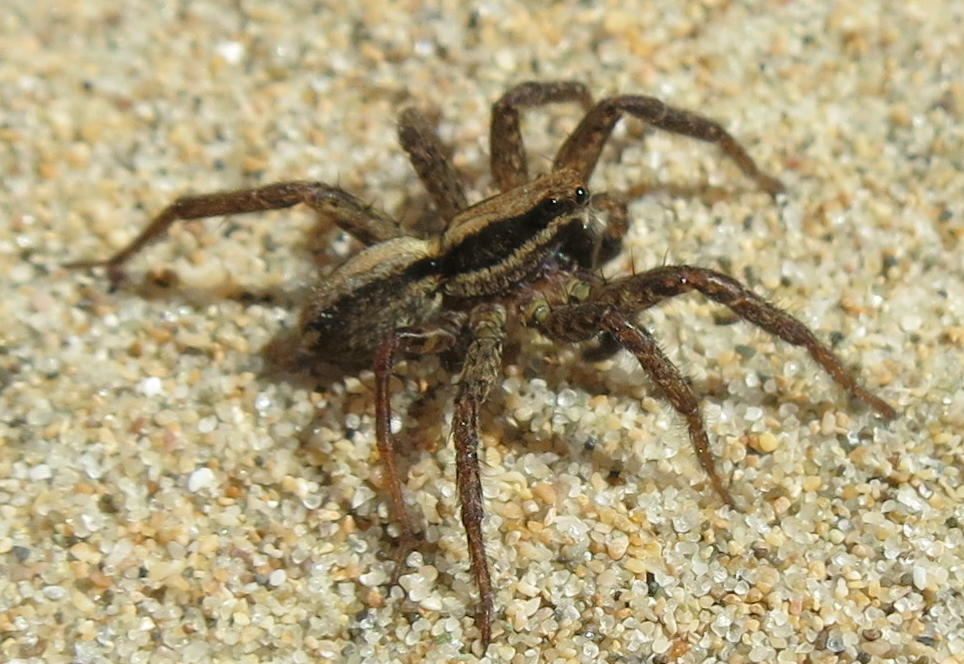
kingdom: Animalia
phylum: Arthropoda
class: Arachnida
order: Araneae
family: Lycosidae
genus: Anoteropsis
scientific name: Anoteropsis hilaris
